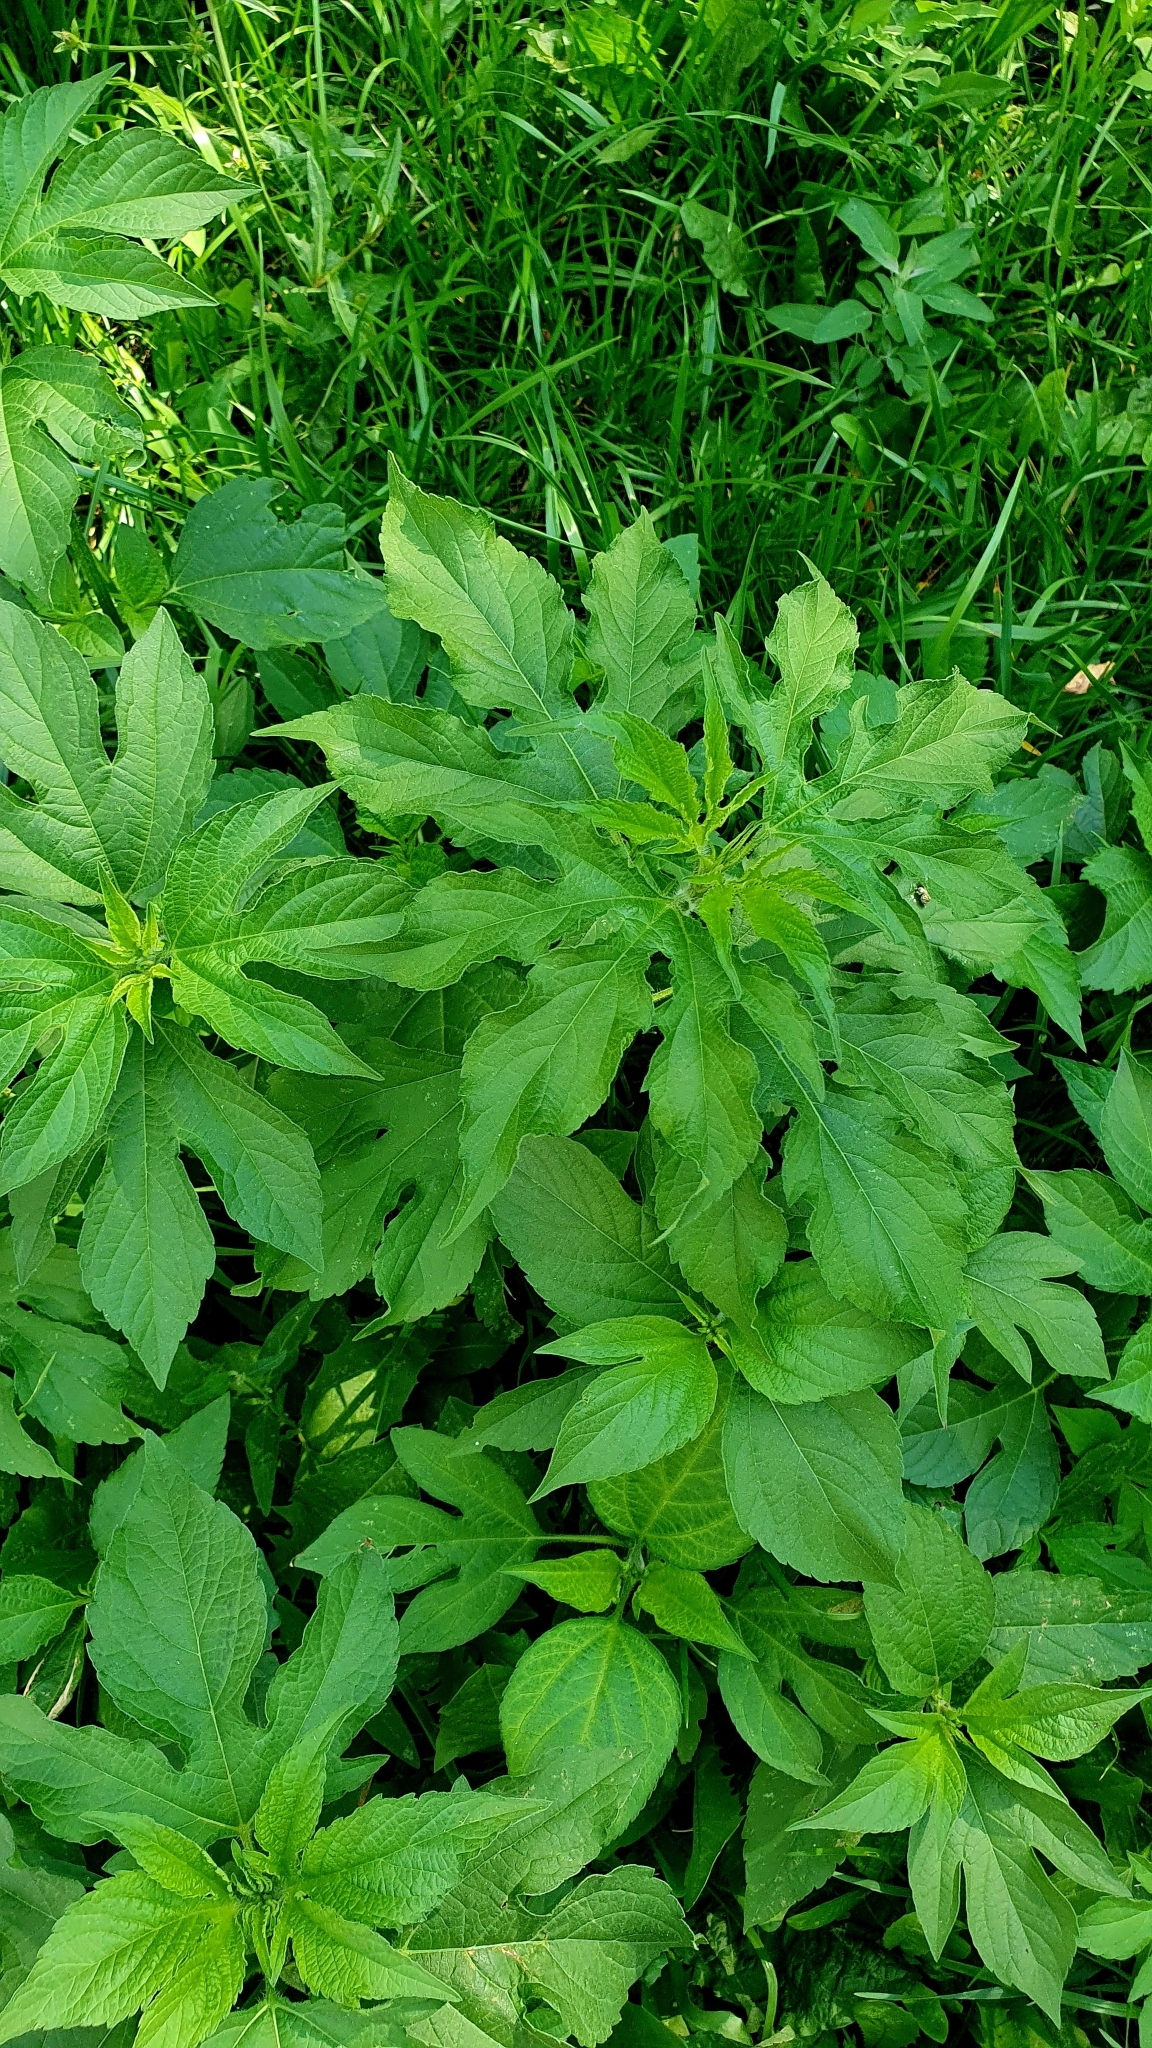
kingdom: Plantae
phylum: Tracheophyta
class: Magnoliopsida
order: Asterales
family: Asteraceae
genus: Ambrosia
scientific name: Ambrosia trifida
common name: Giant ragweed
